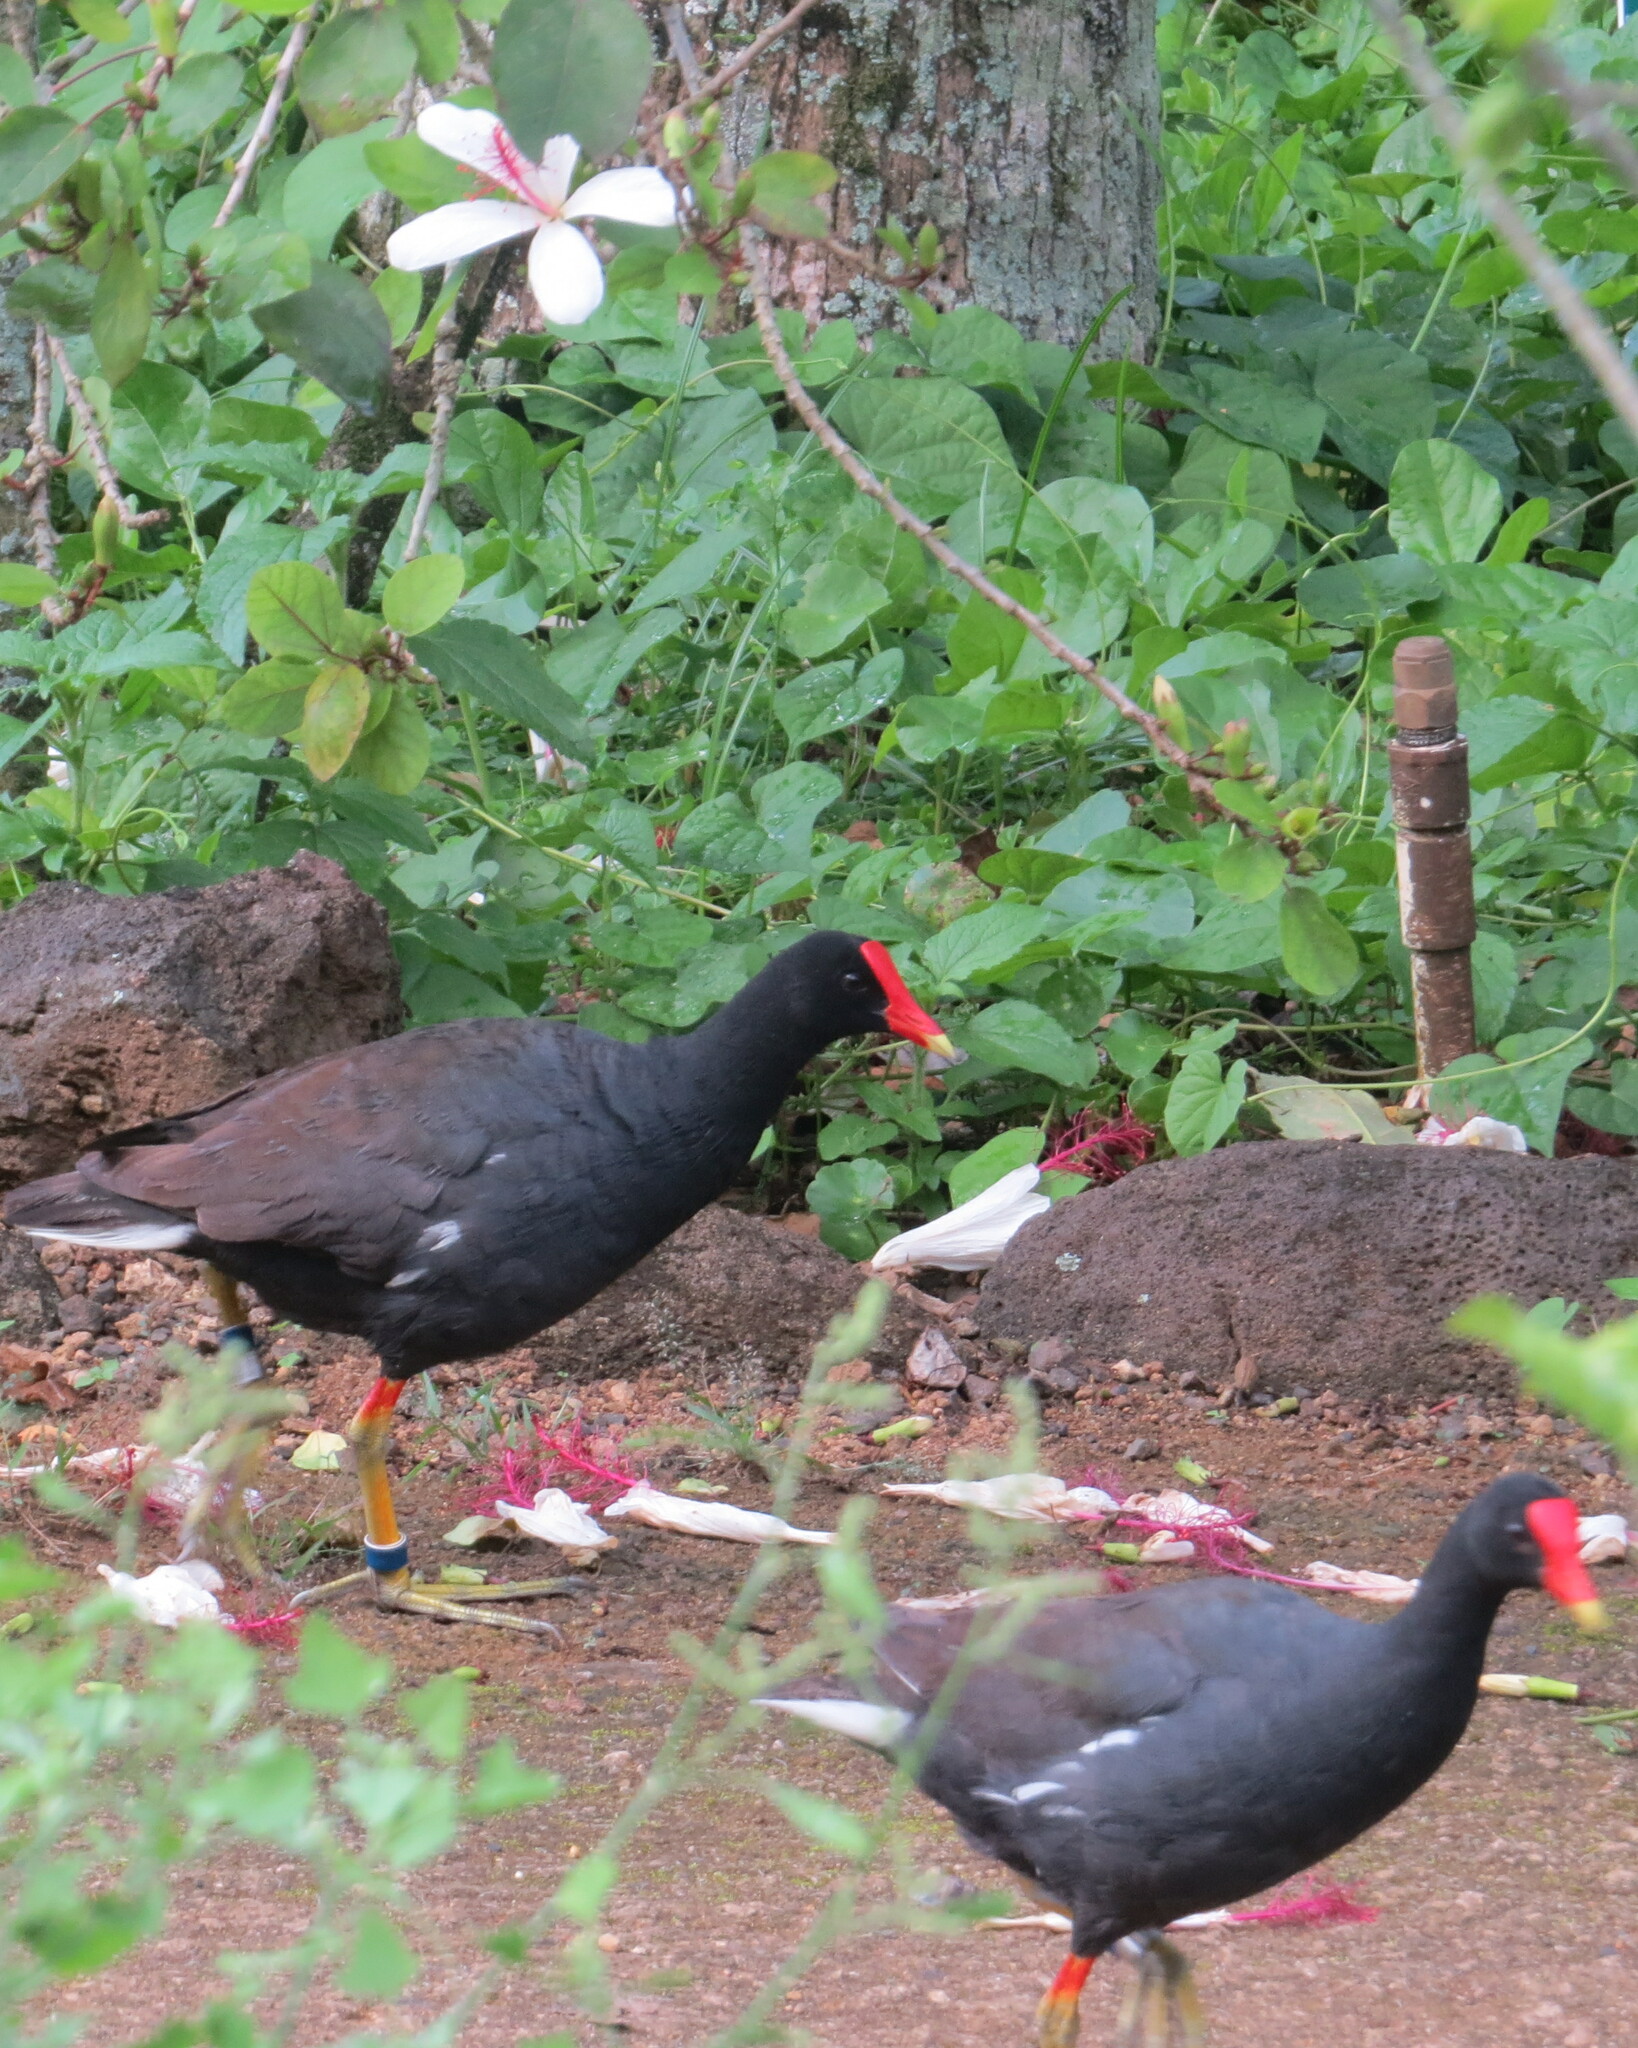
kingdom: Animalia
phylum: Chordata
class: Aves
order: Gruiformes
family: Rallidae
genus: Gallinula
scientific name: Gallinula chloropus
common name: Common moorhen
